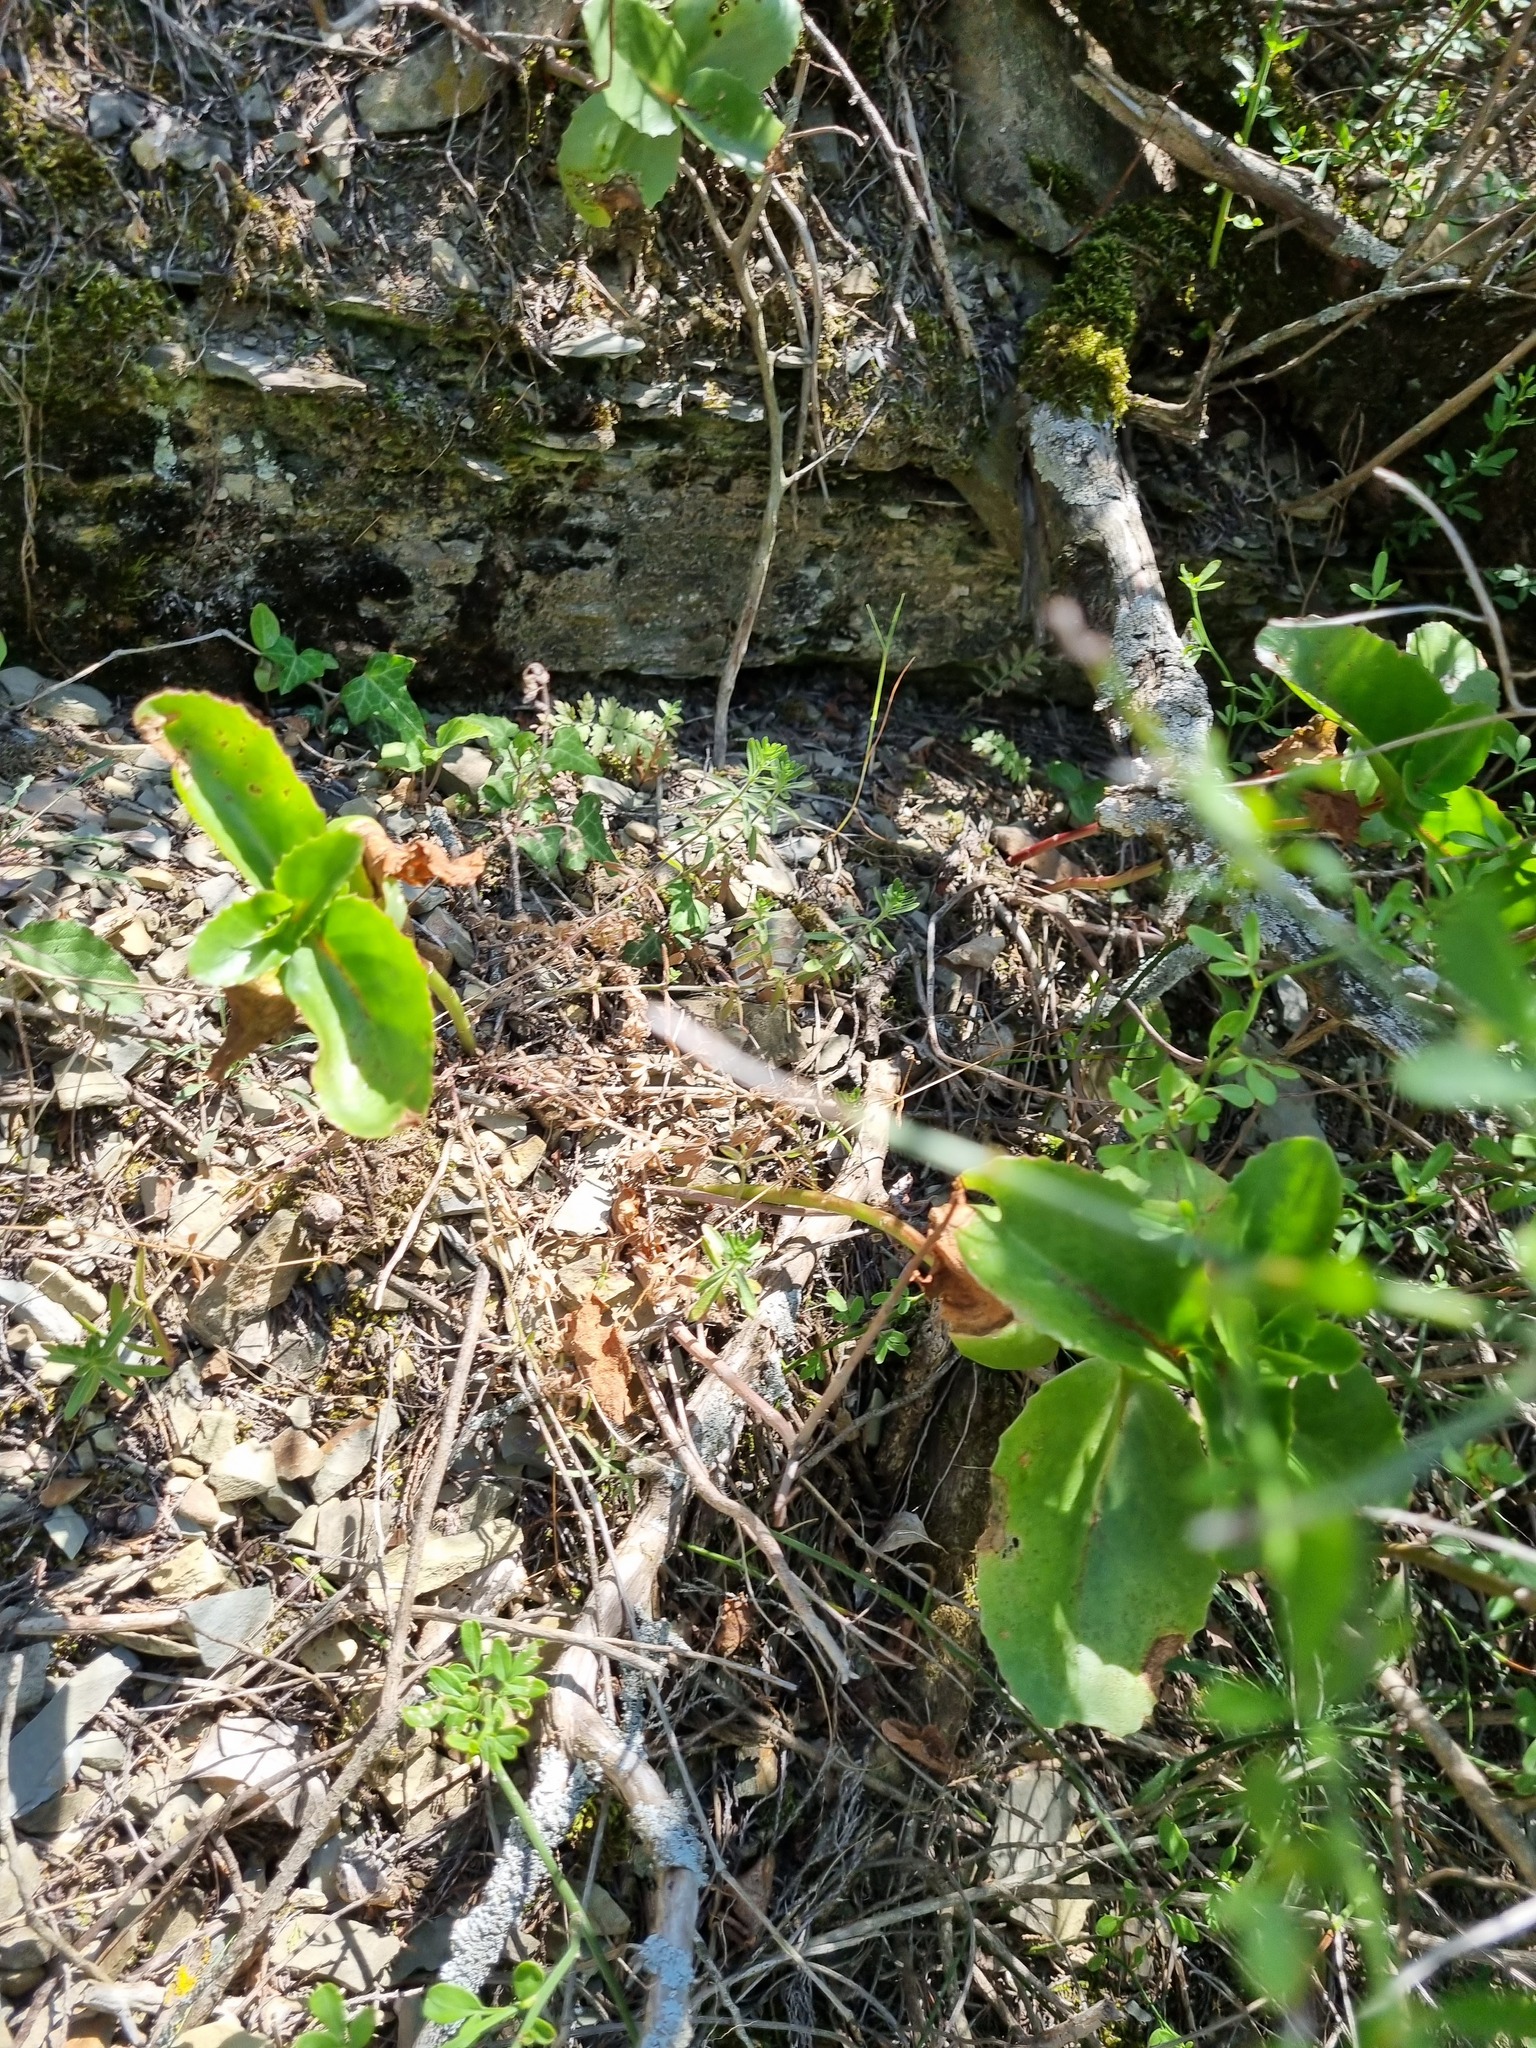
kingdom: Plantae
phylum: Tracheophyta
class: Magnoliopsida
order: Saxifragales
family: Crassulaceae
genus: Hylotelephium
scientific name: Hylotelephium maximum
